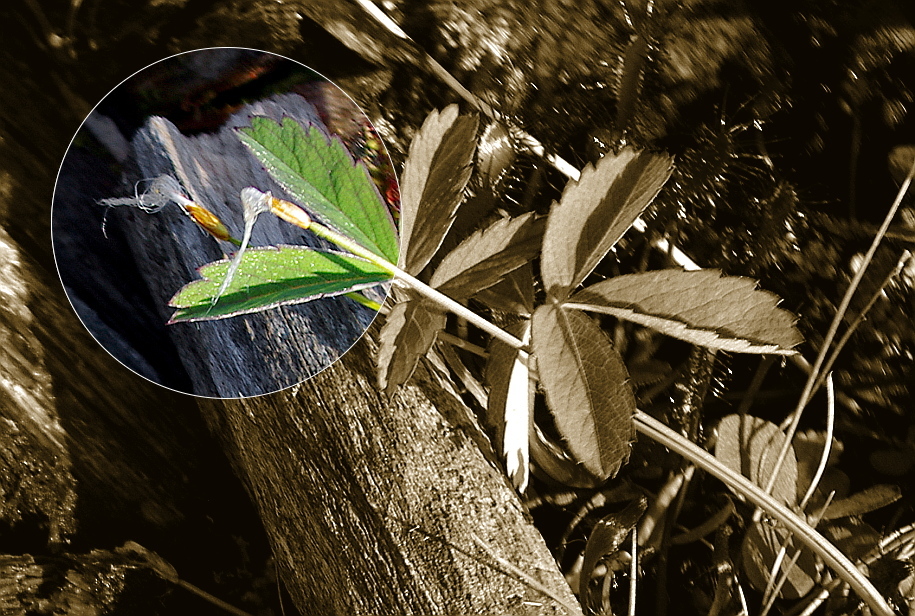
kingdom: Plantae
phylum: Tracheophyta
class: Liliopsida
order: Poales
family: Cyperaceae
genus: Trichophorum
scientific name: Trichophorum alpinum
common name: Alpine bulrush
